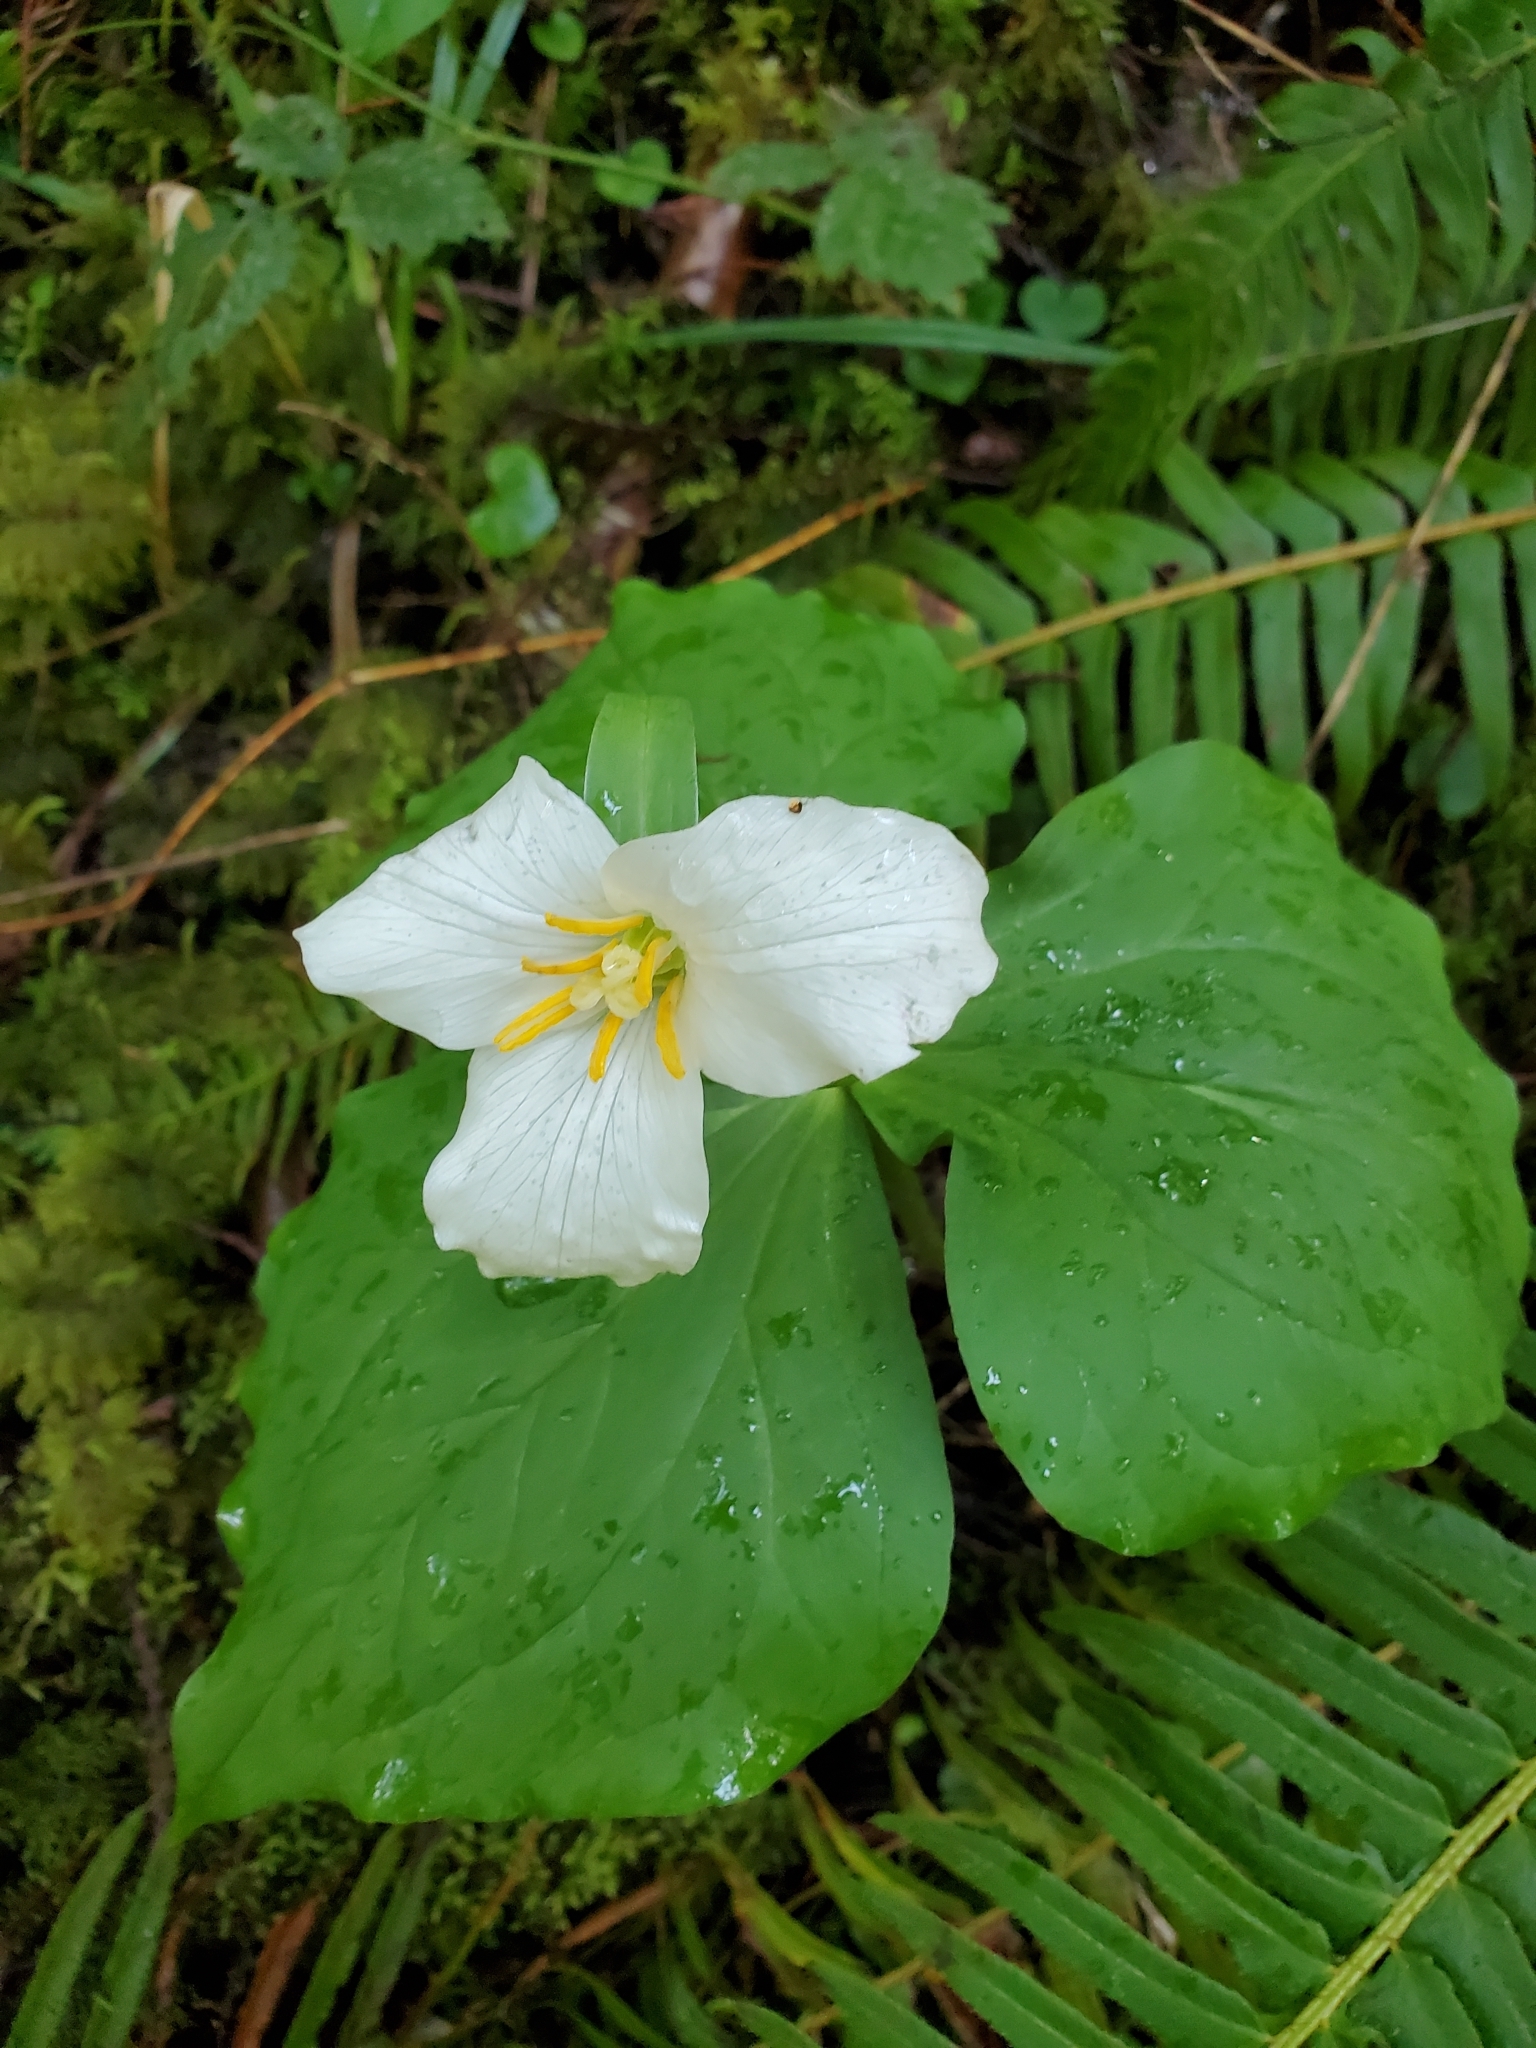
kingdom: Plantae
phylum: Tracheophyta
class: Liliopsida
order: Liliales
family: Melanthiaceae
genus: Trillium
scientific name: Trillium ovatum
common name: Pacific trillium
